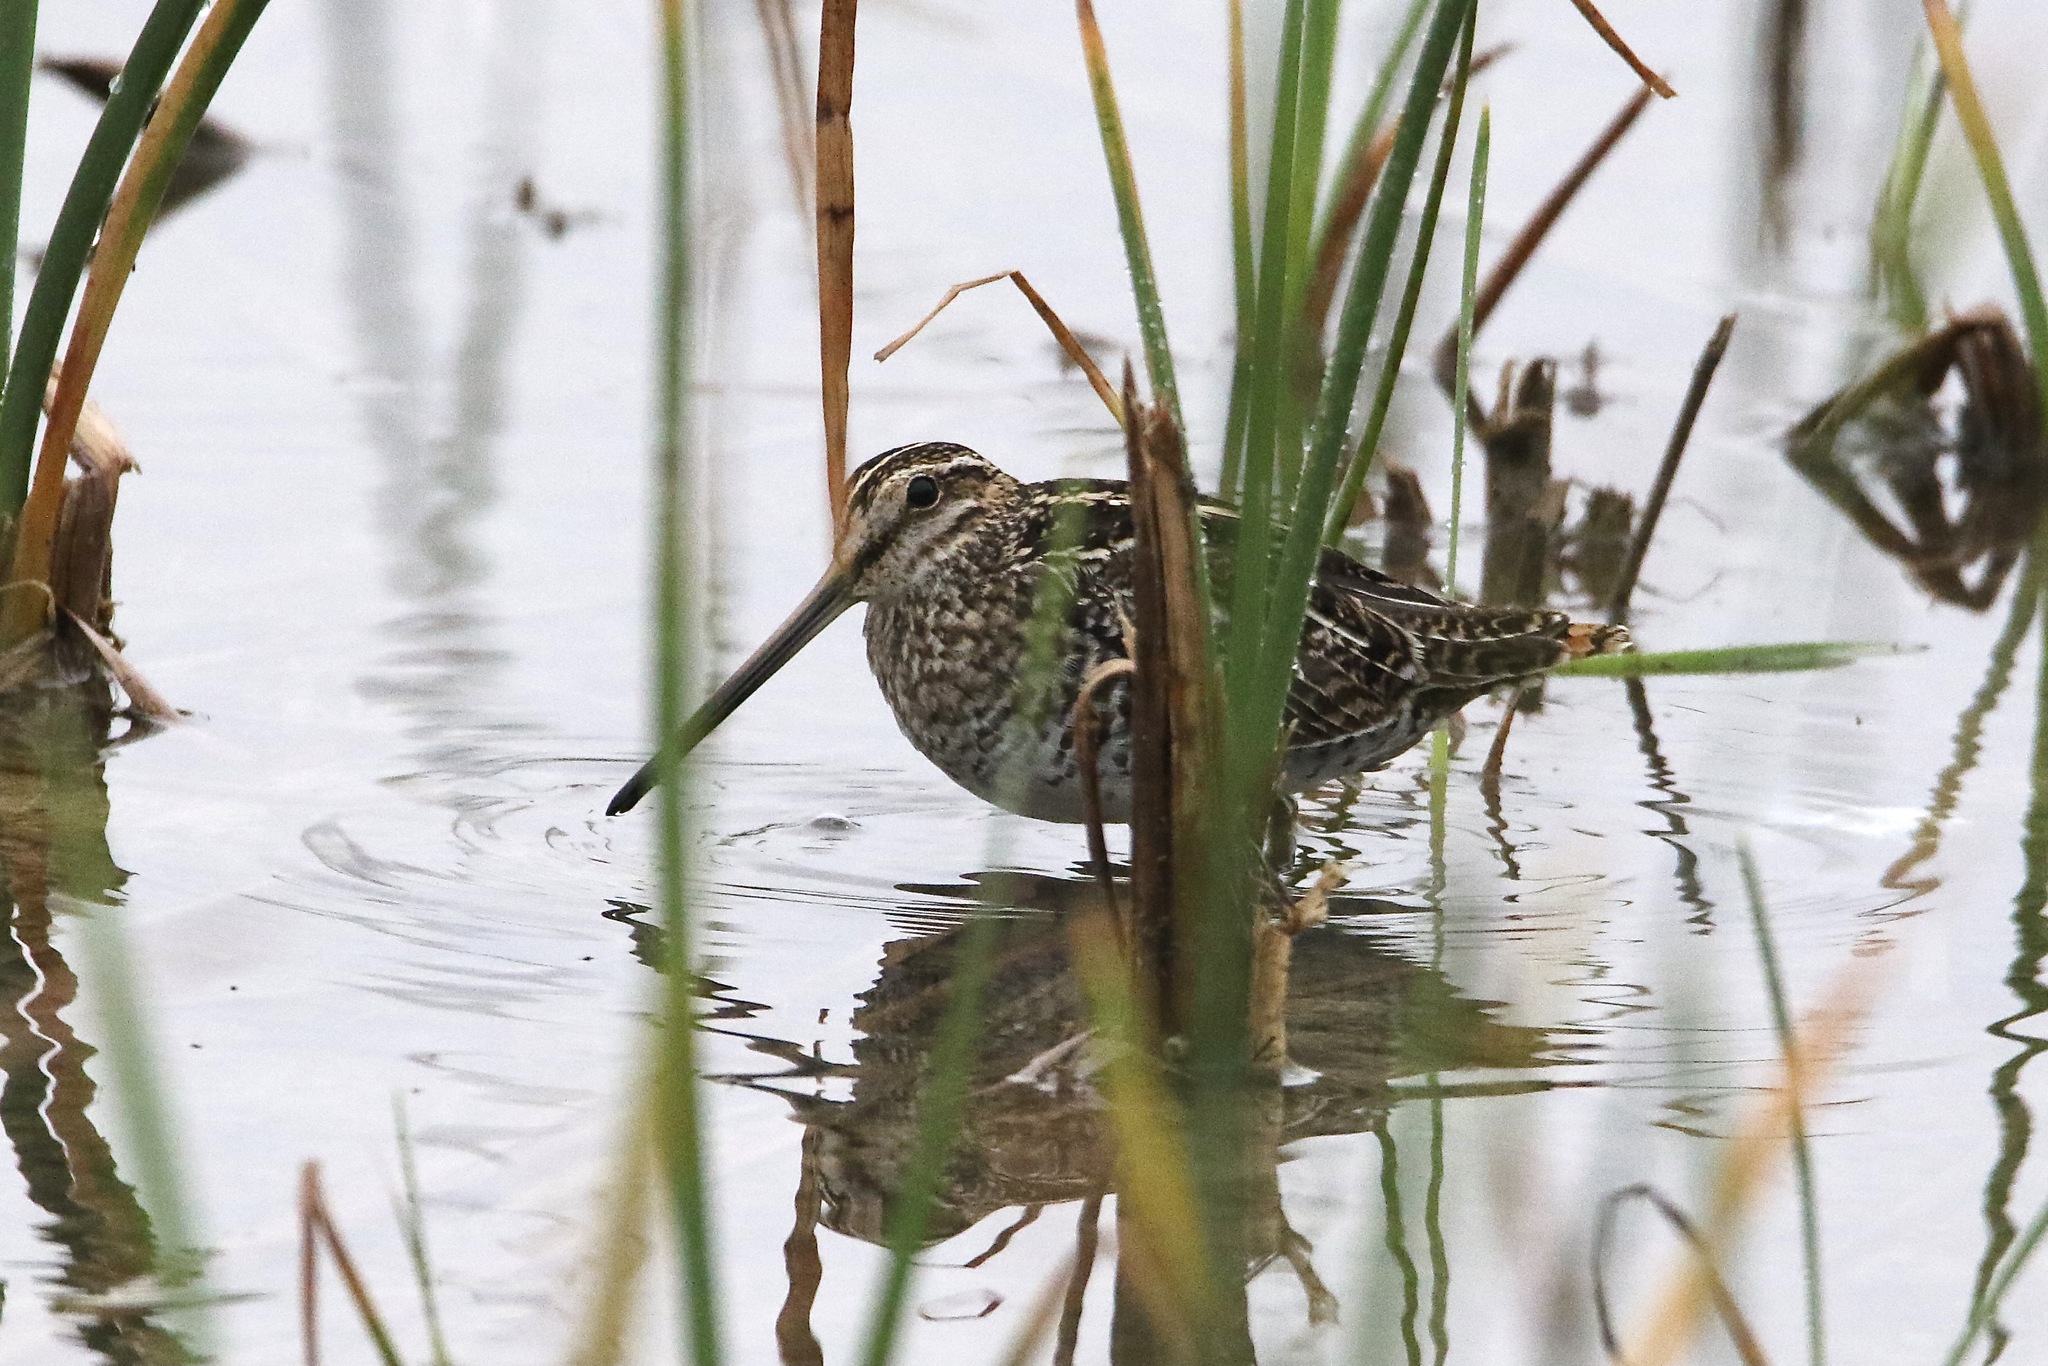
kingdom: Animalia
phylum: Chordata
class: Aves
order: Charadriiformes
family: Scolopacidae
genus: Gallinago
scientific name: Gallinago delicata
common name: Wilson's snipe
